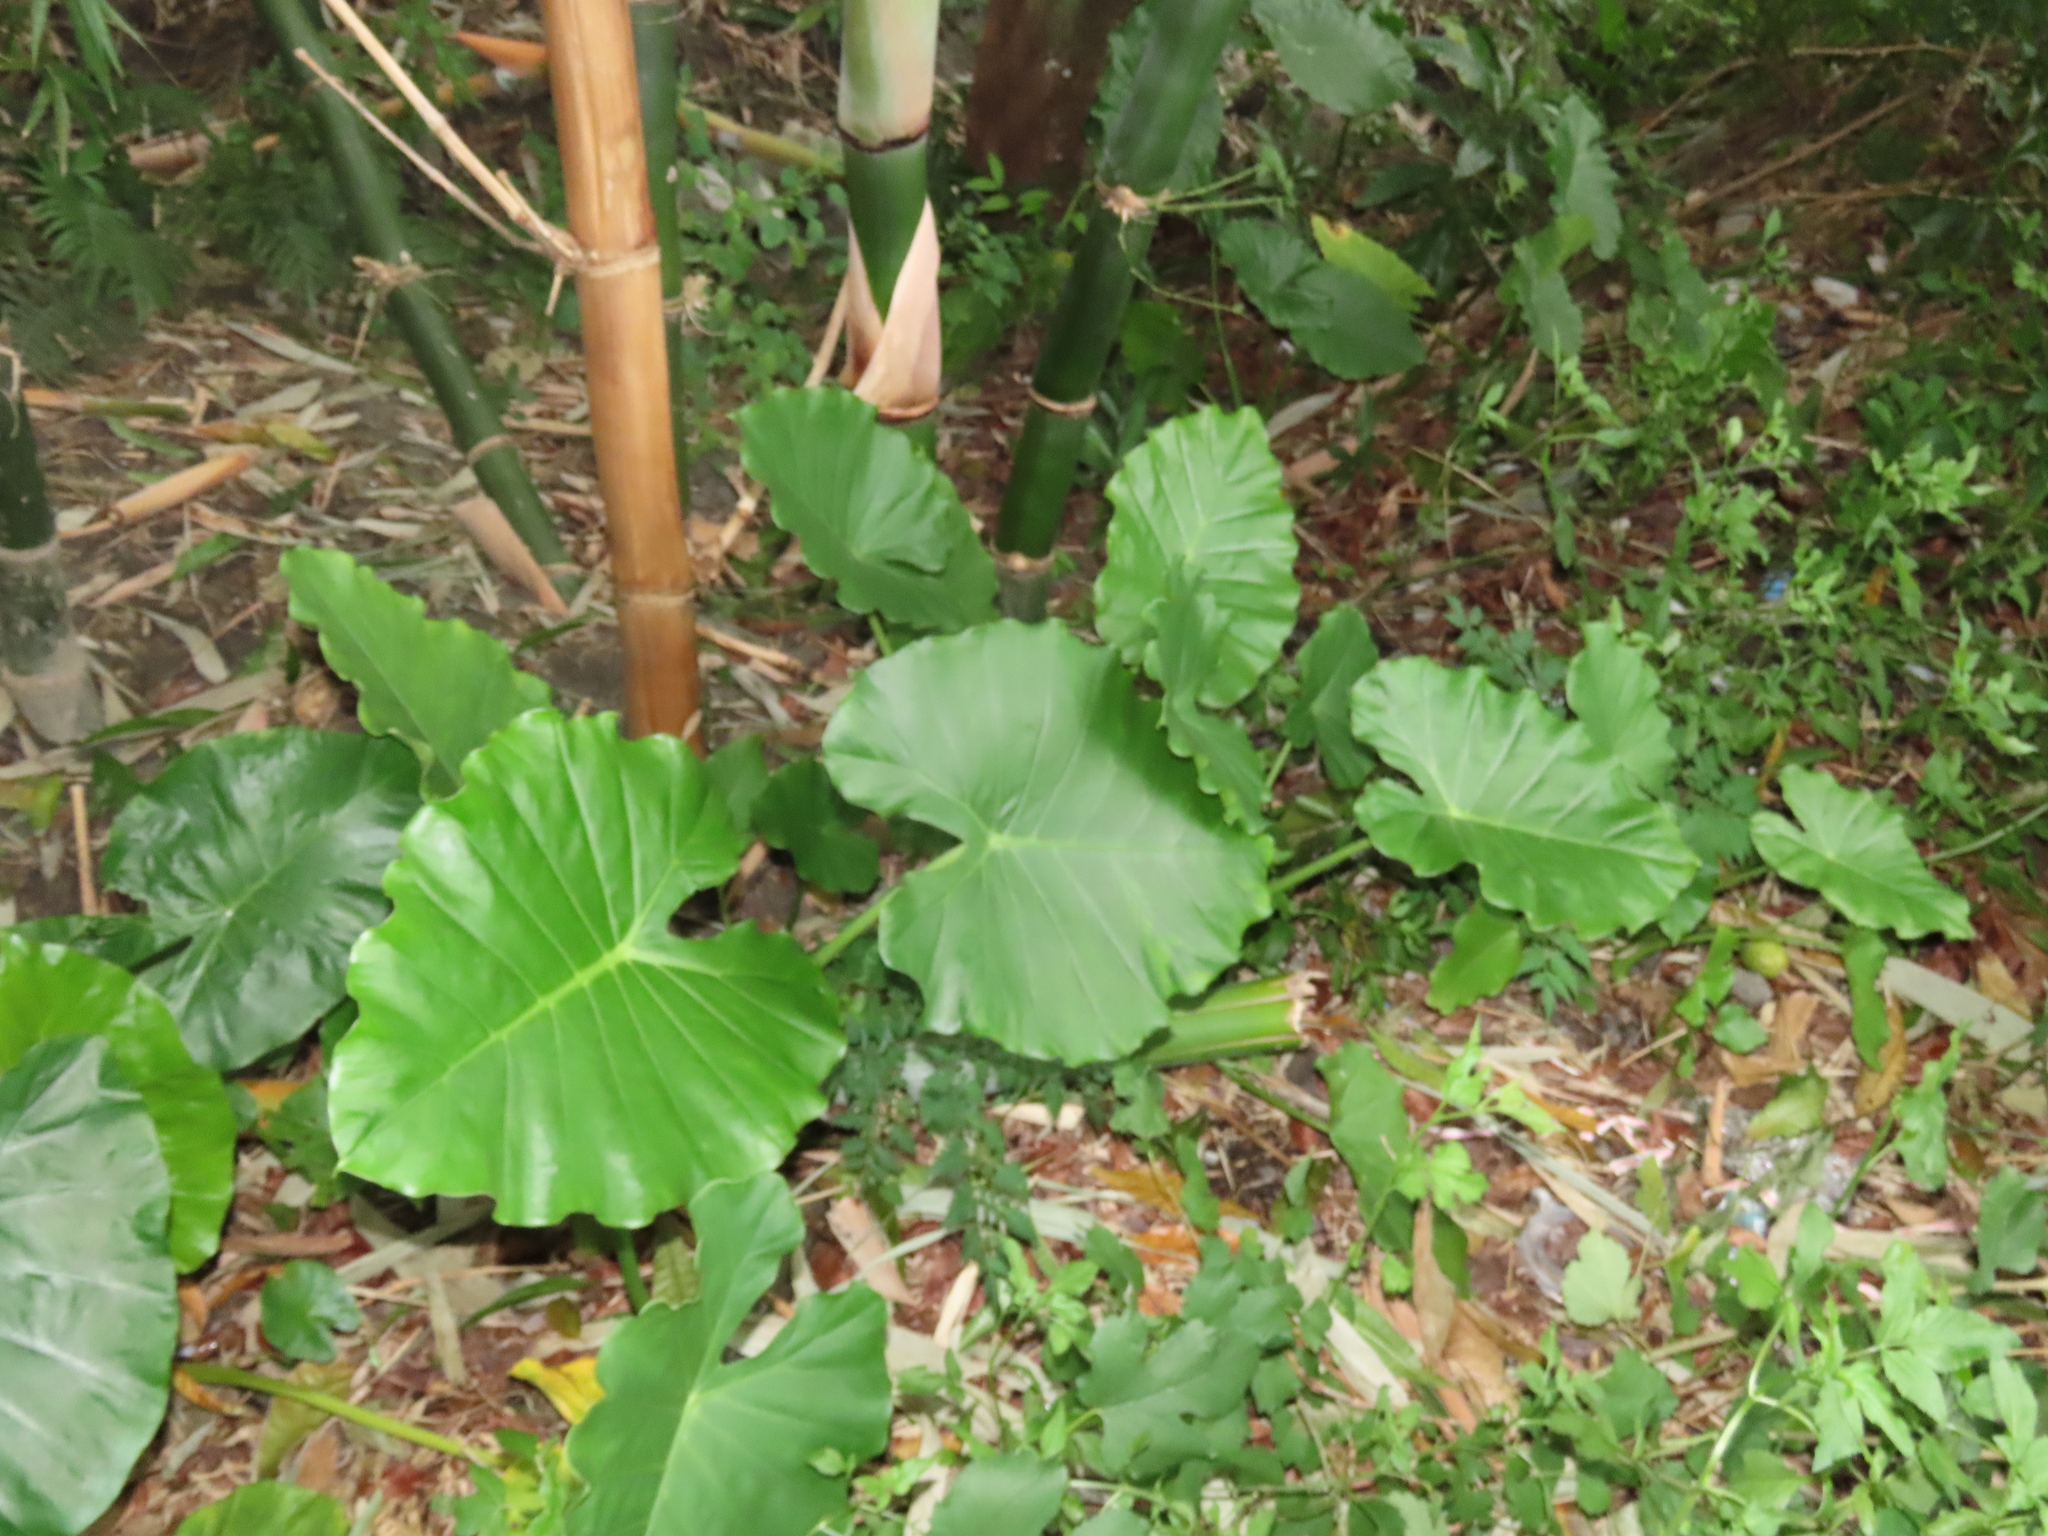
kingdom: Plantae
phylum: Tracheophyta
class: Liliopsida
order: Alismatales
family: Araceae
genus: Alocasia
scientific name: Alocasia odora
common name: Asian taro
